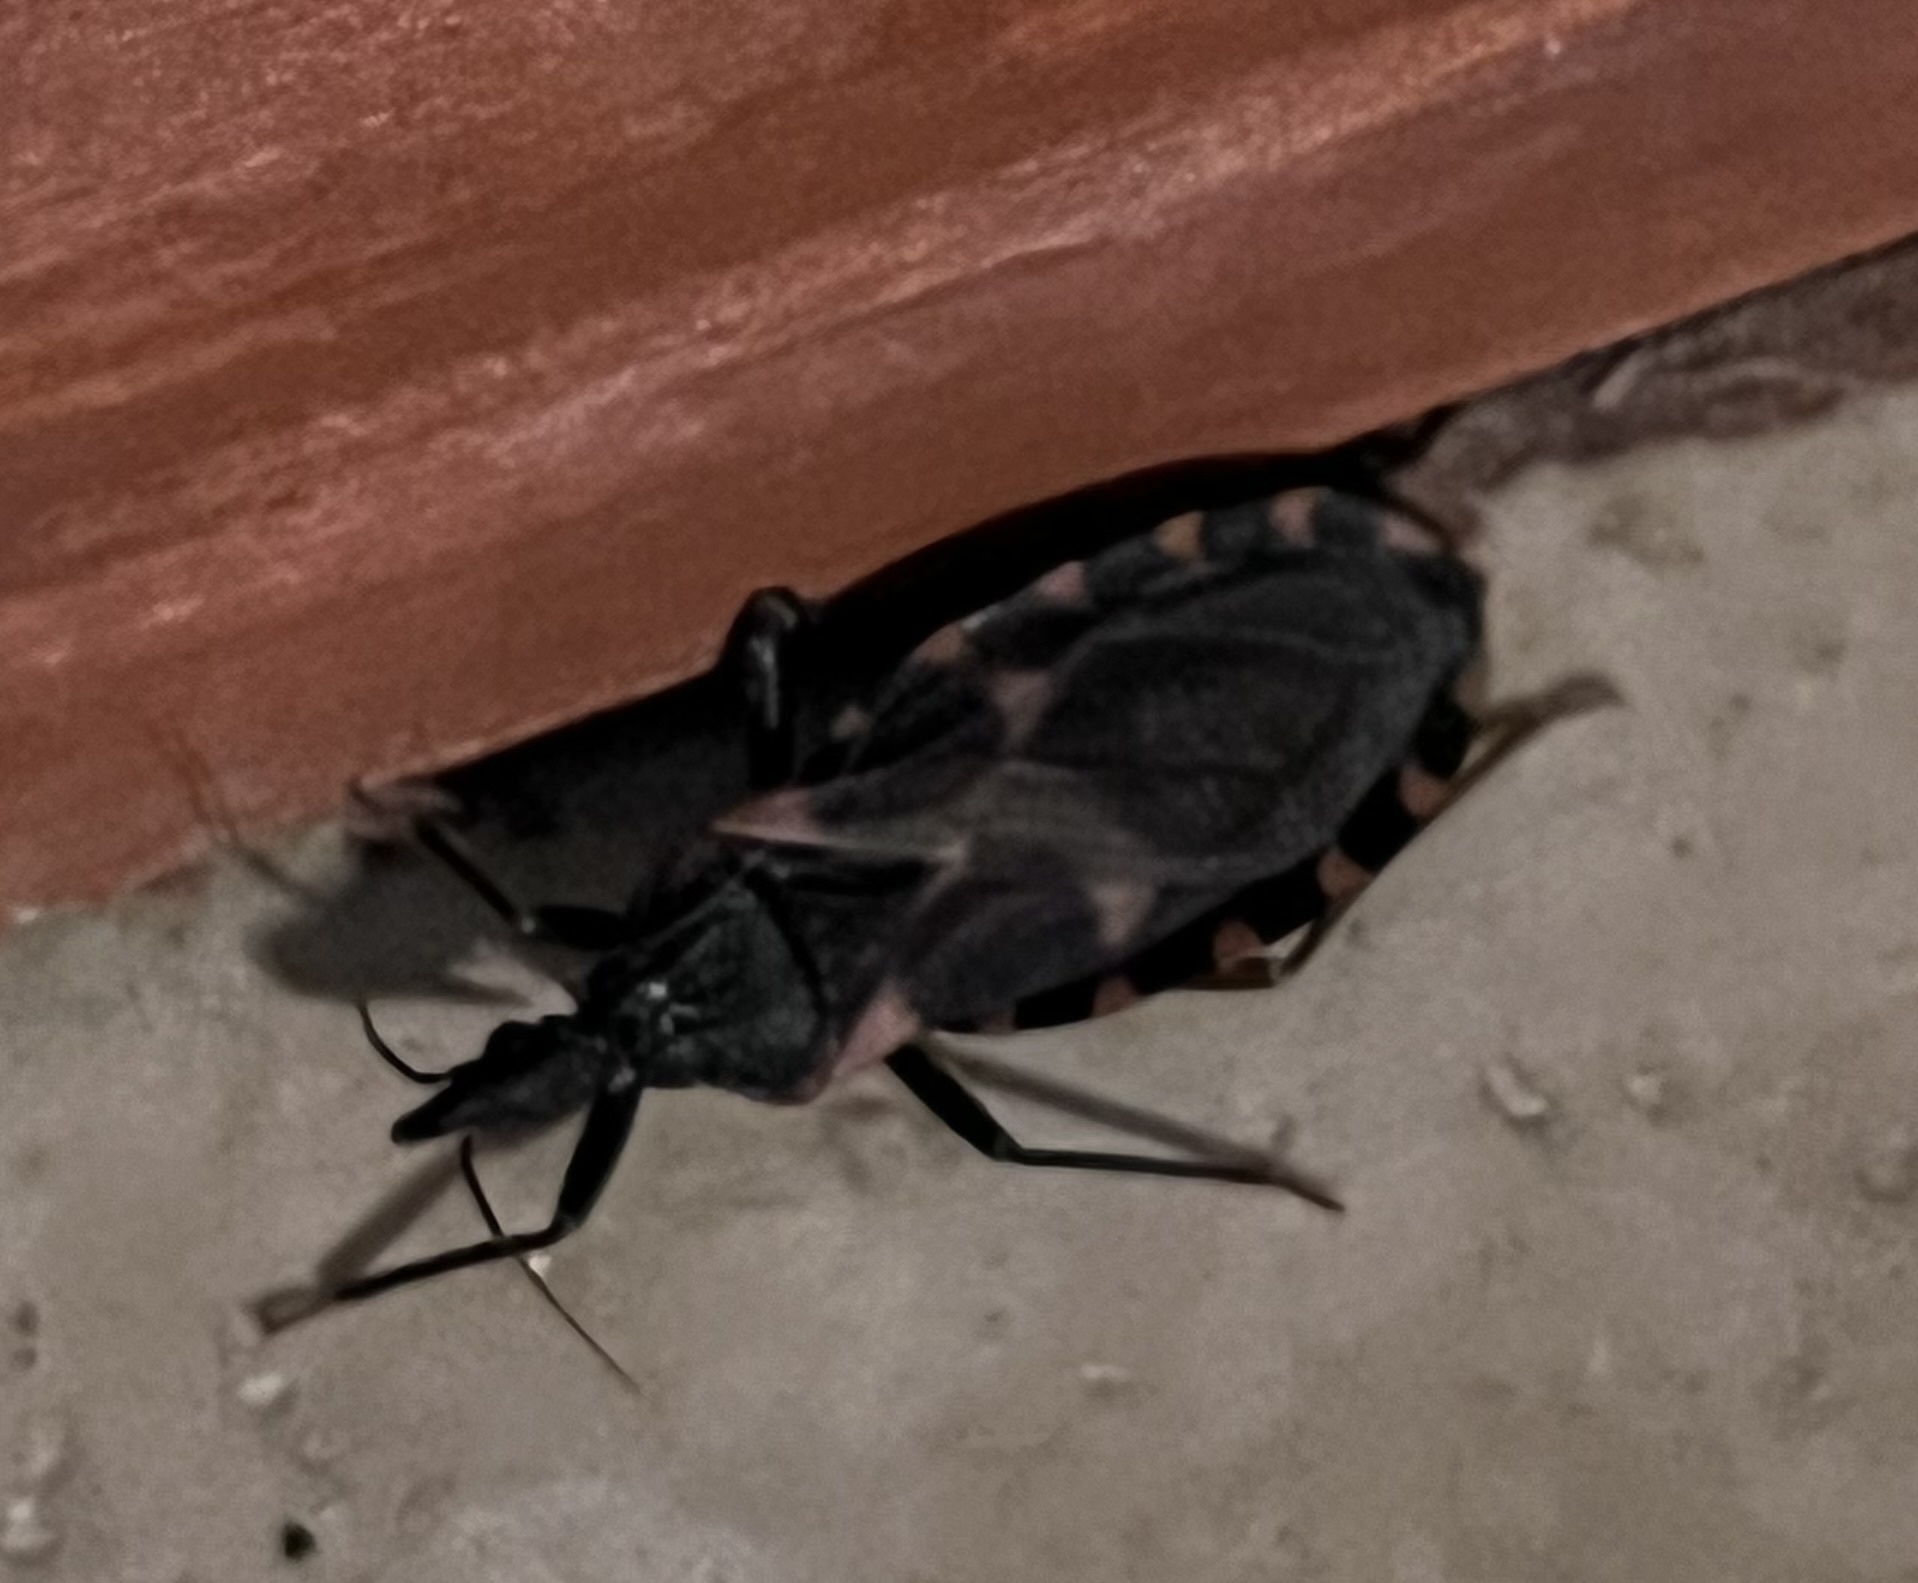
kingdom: Animalia
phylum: Arthropoda
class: Insecta
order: Hemiptera
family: Reduviidae
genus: Triatoma
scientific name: Triatoma sanguisuga
